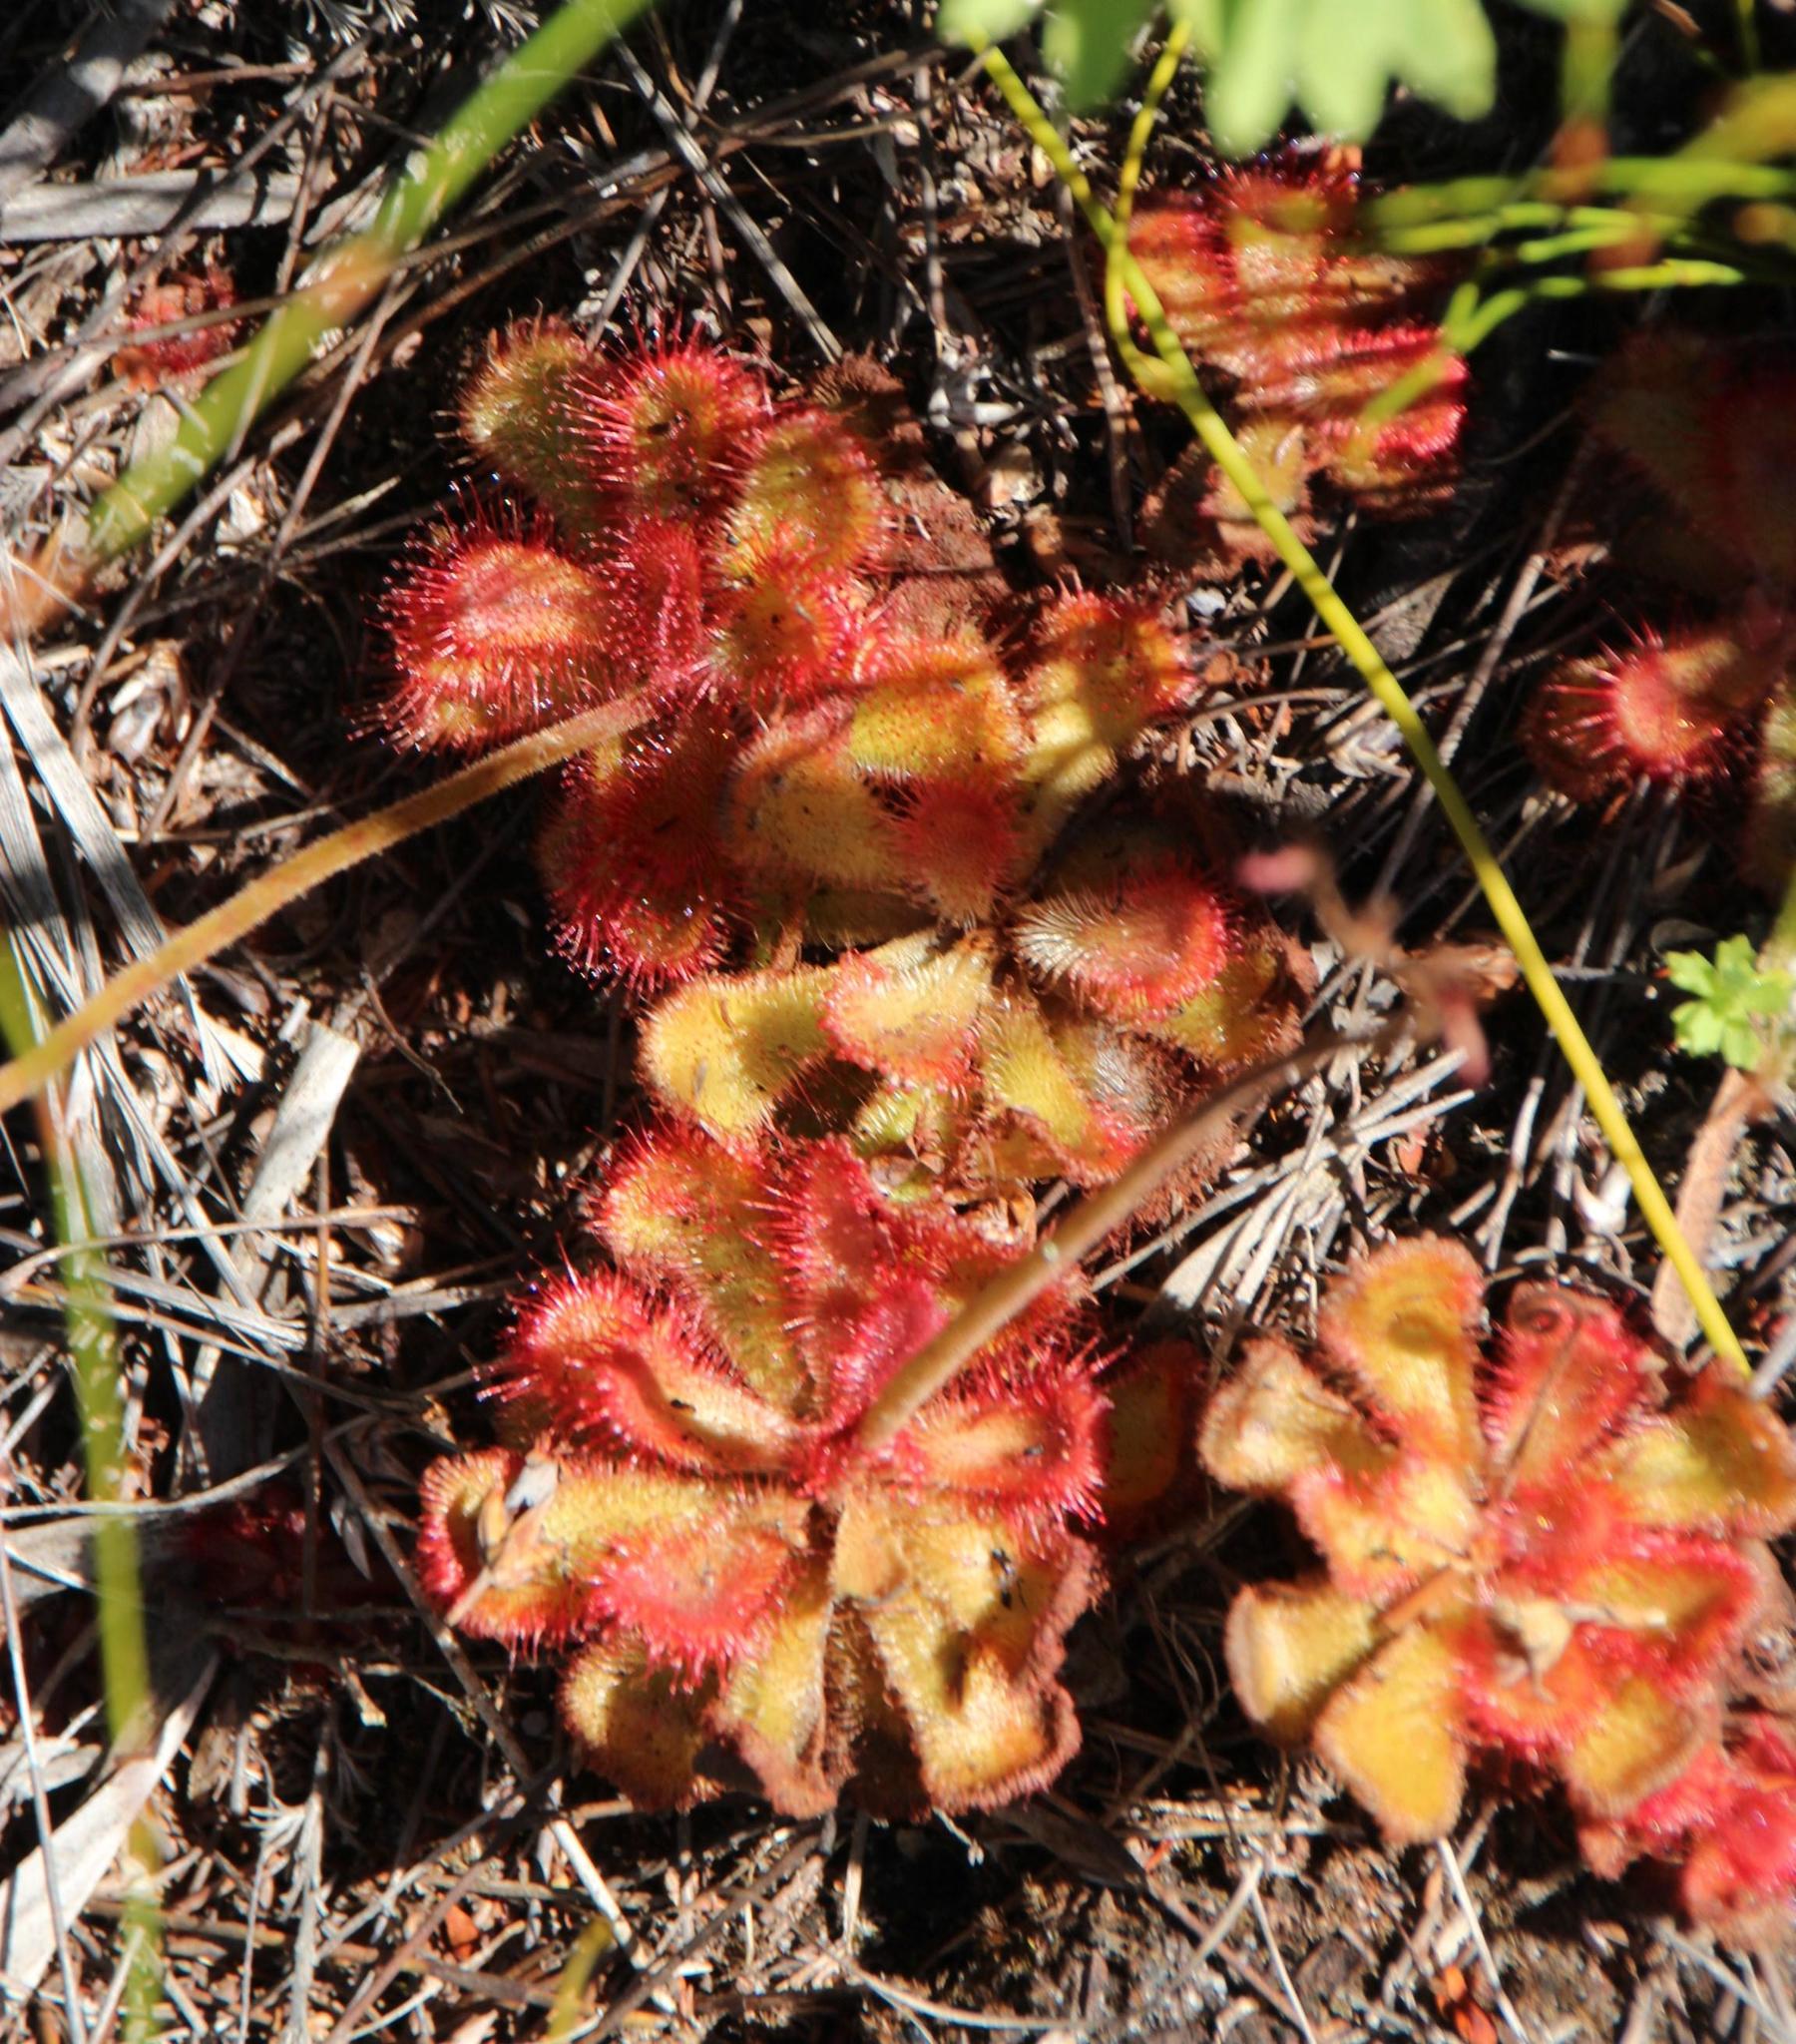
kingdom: Plantae
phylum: Tracheophyta
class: Magnoliopsida
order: Caryophyllales
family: Droseraceae
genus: Drosera
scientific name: Drosera cuneifolia
